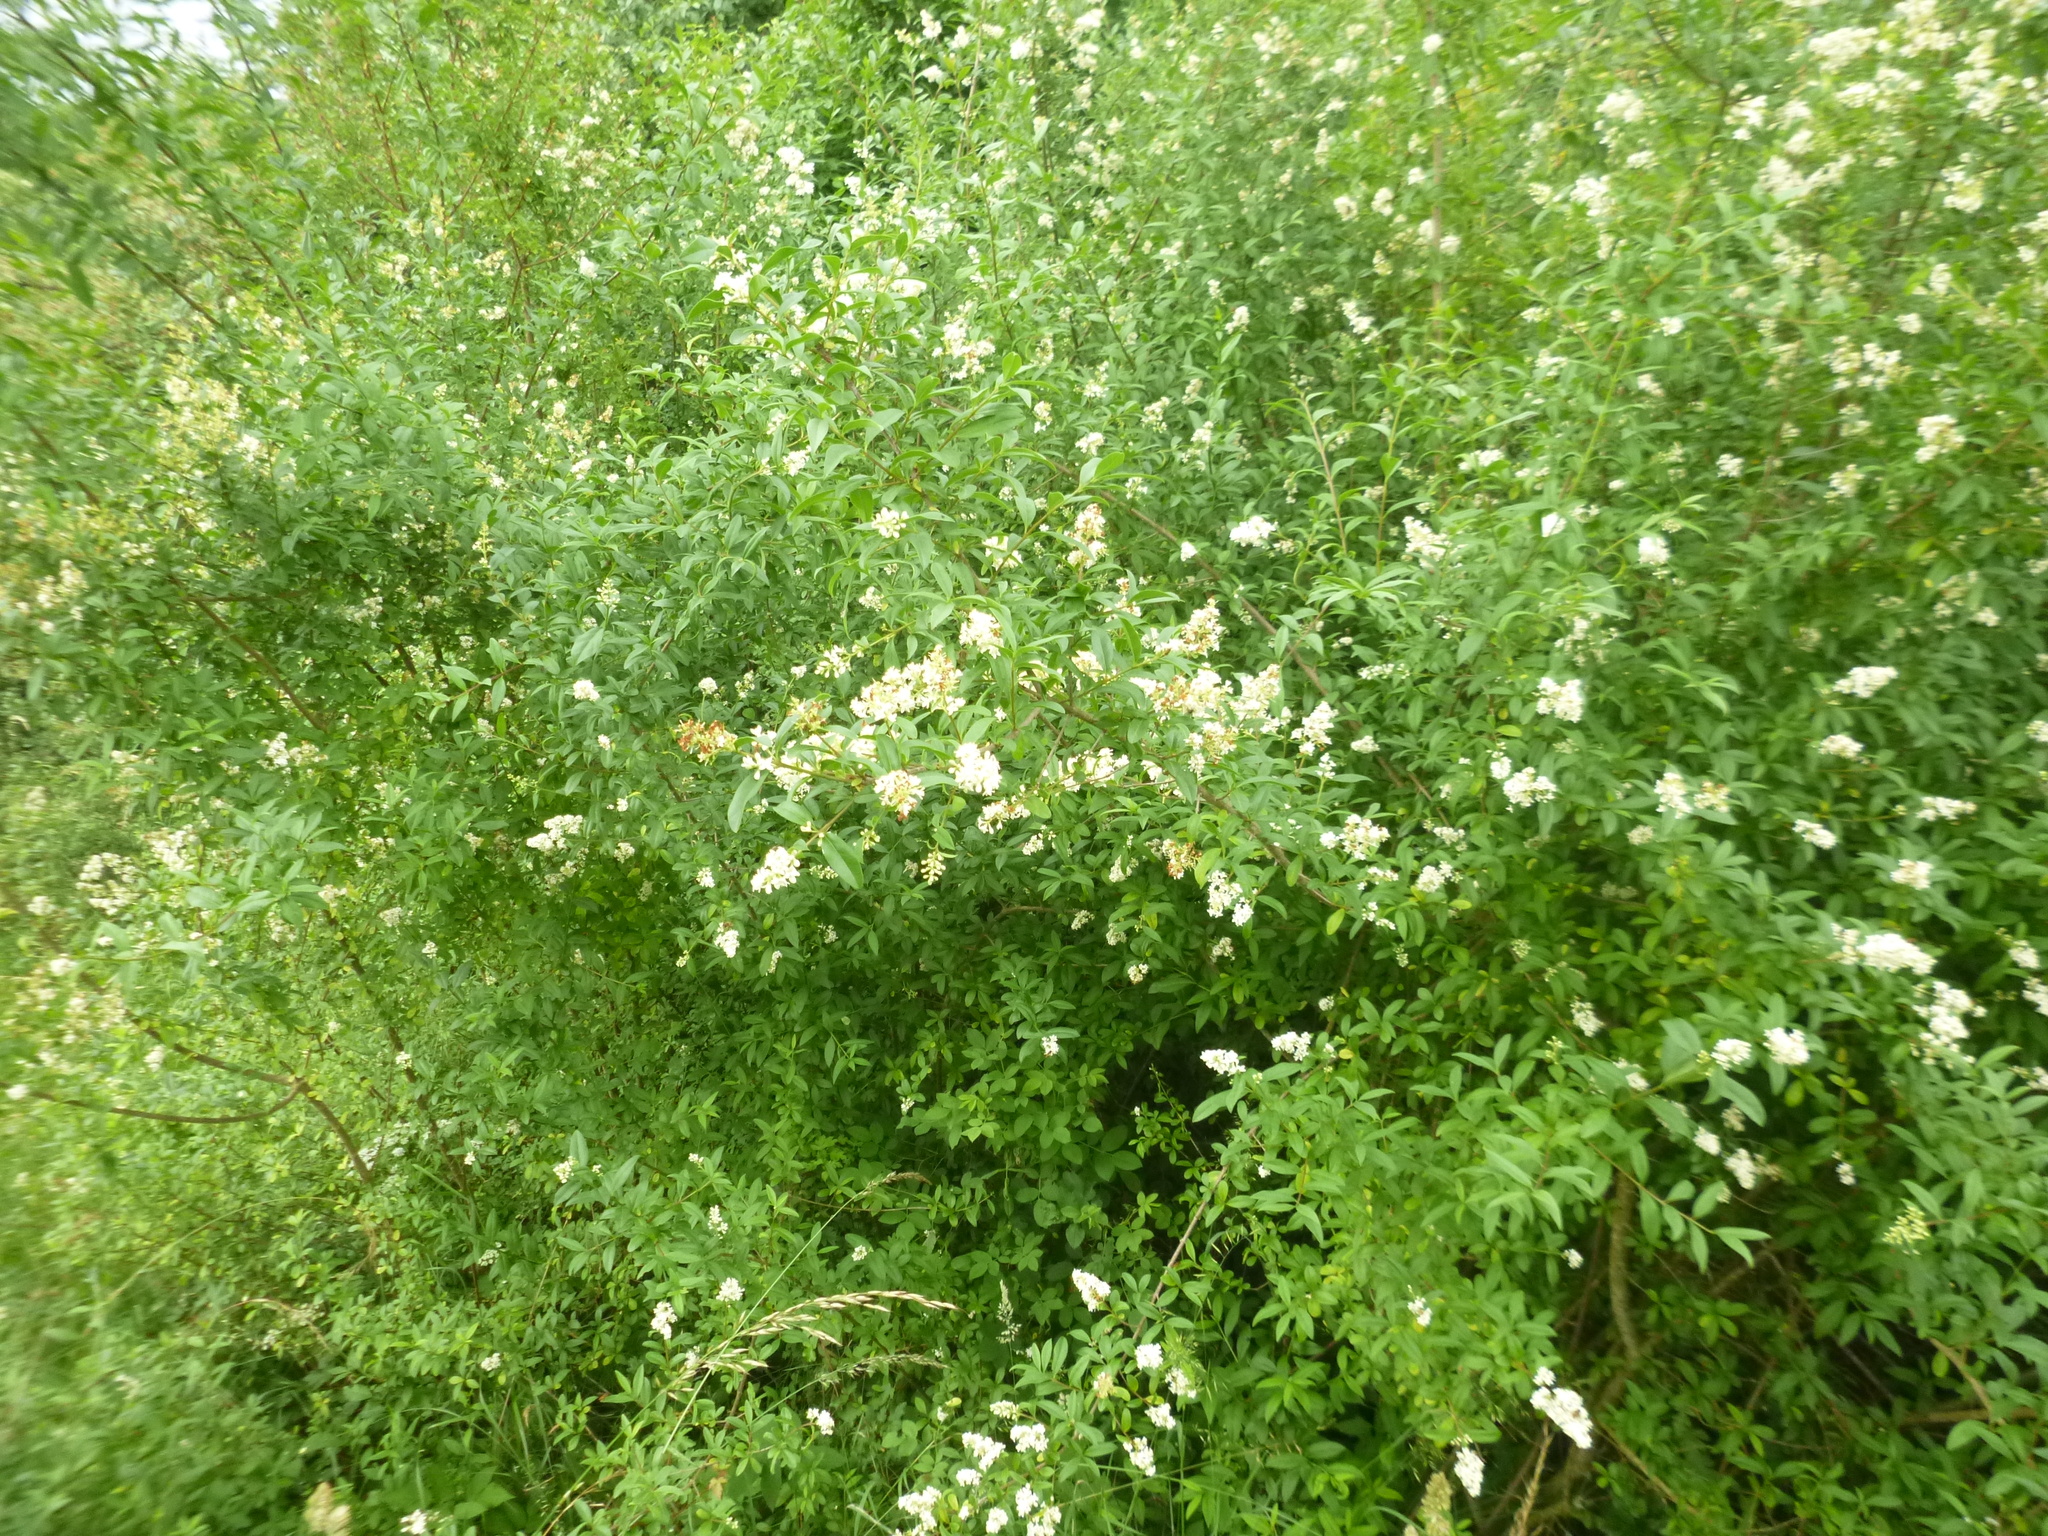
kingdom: Plantae
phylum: Tracheophyta
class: Magnoliopsida
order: Lamiales
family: Oleaceae
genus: Ligustrum
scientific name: Ligustrum vulgare
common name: Wild privet
